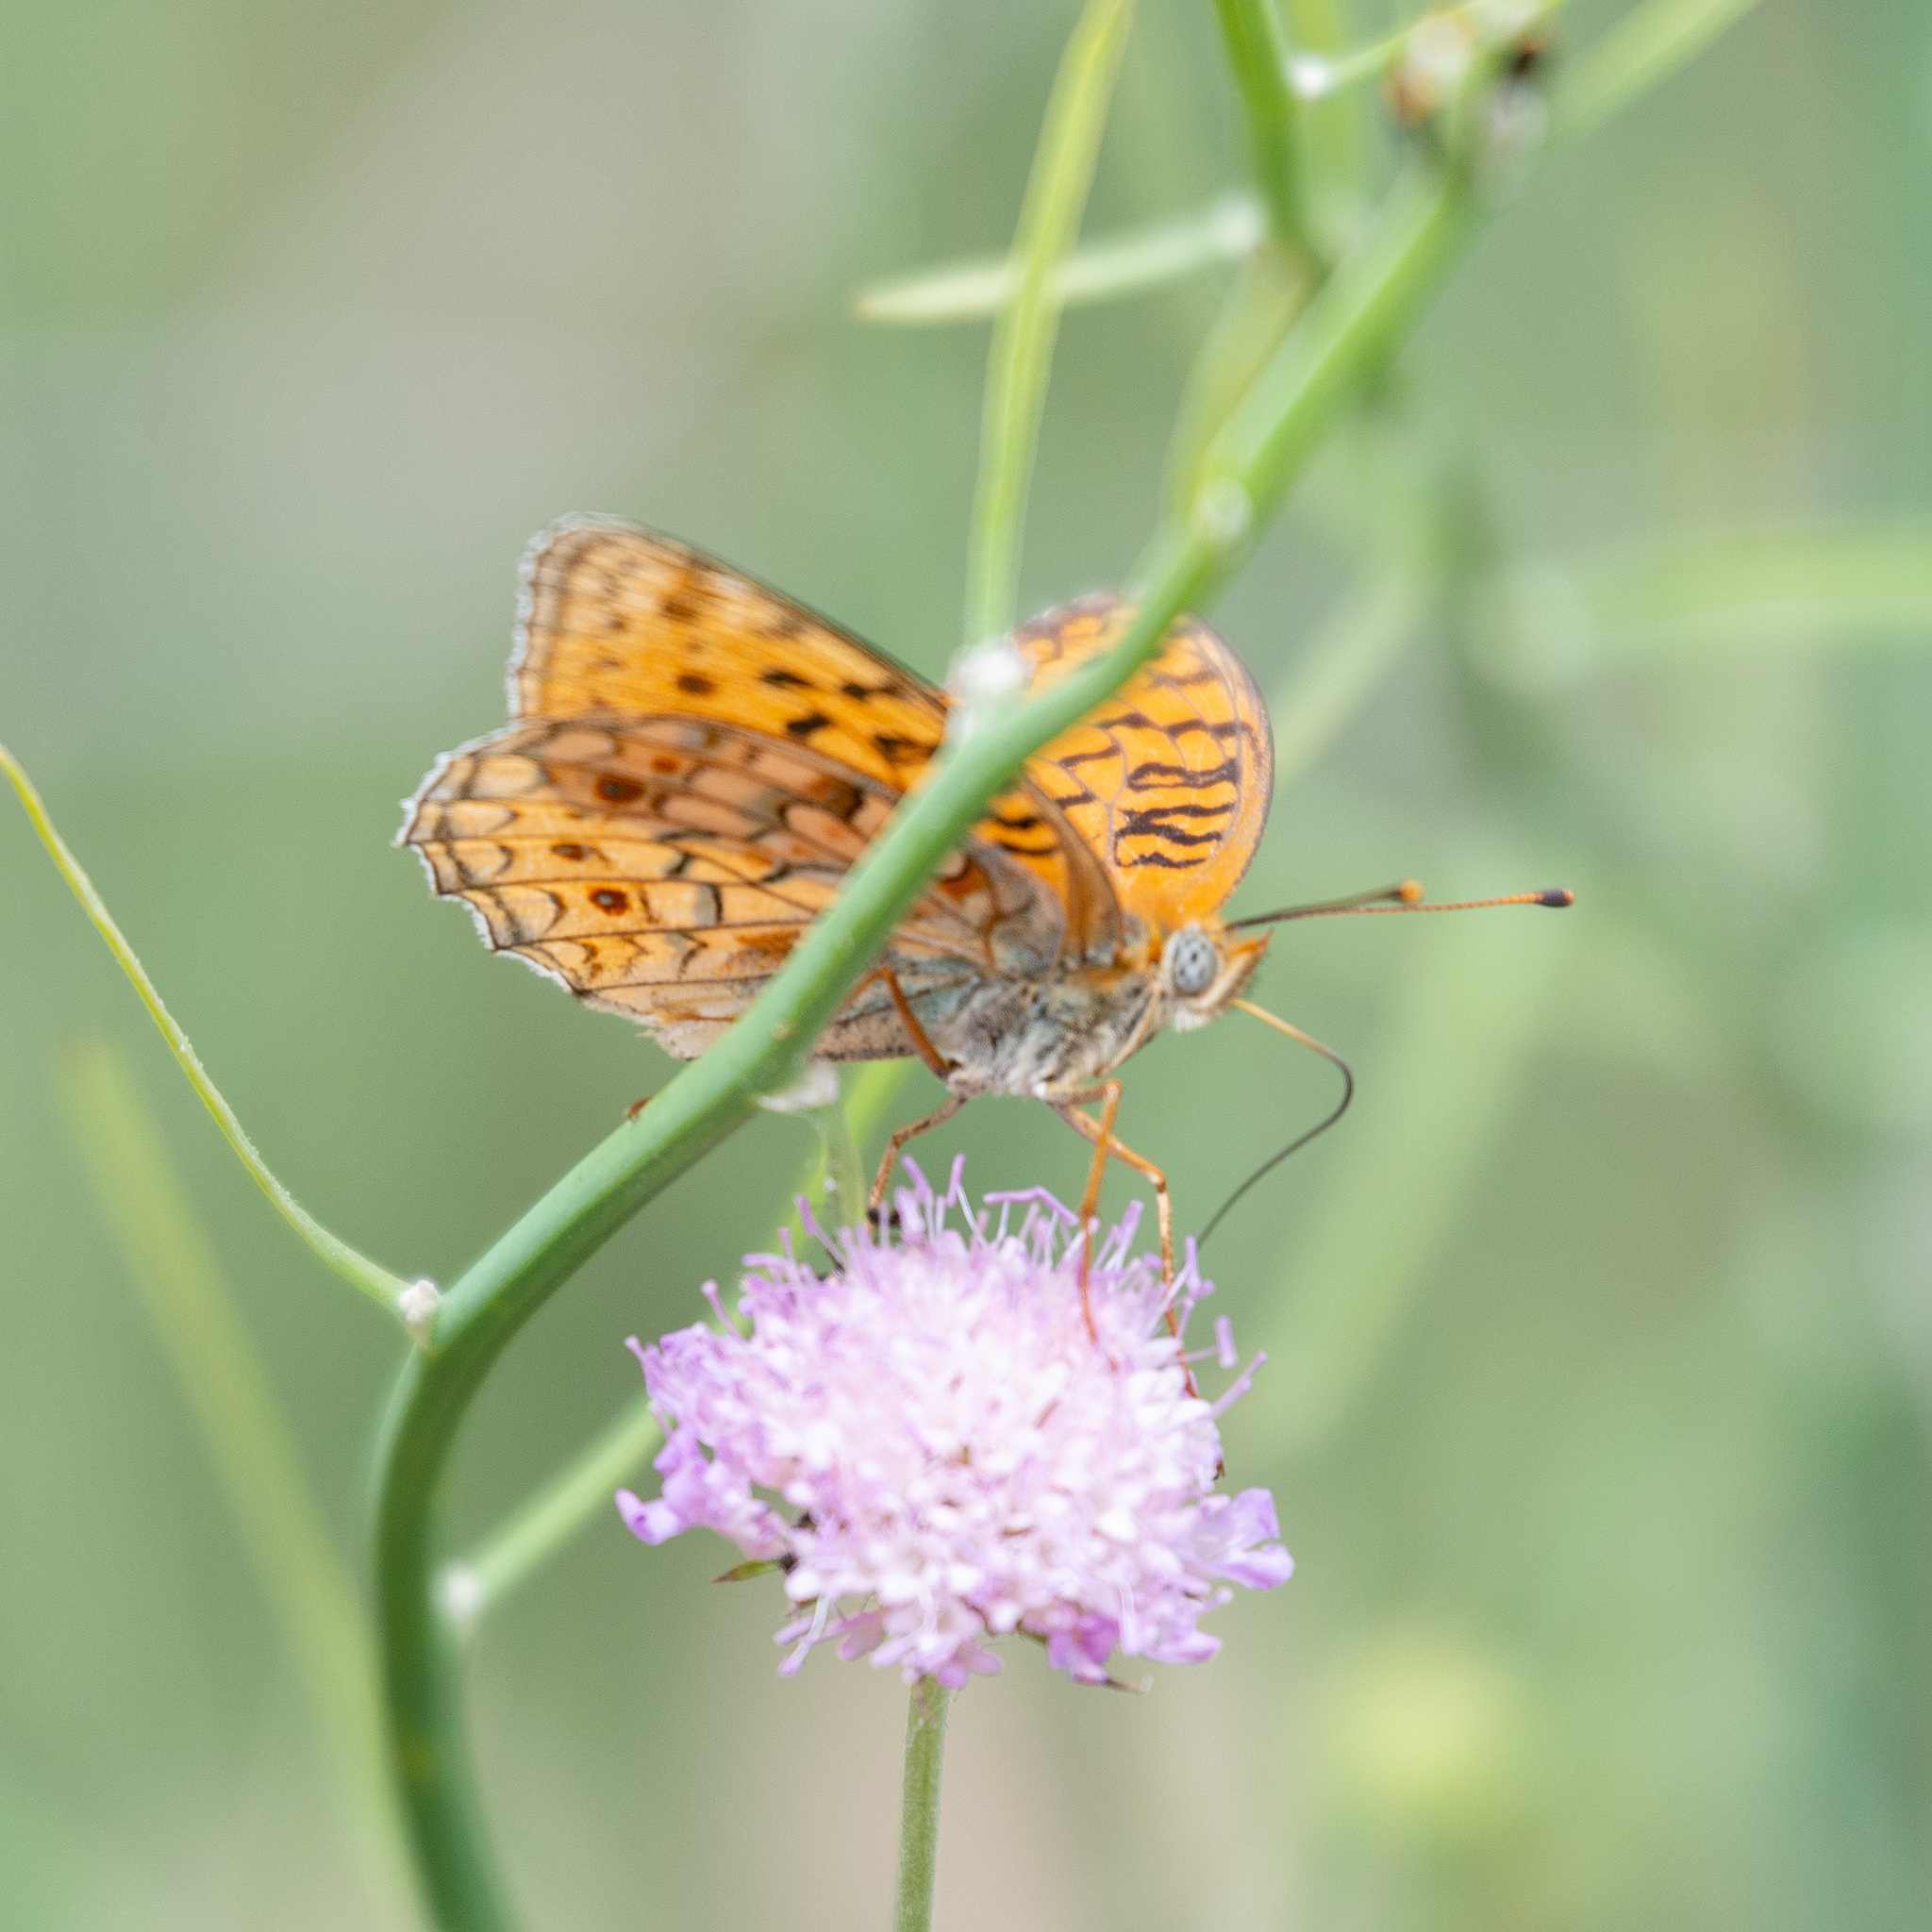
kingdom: Animalia
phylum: Arthropoda
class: Insecta
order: Lepidoptera
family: Nymphalidae
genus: Fabriciana
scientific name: Fabriciana niobe
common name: Niobe fritillary
